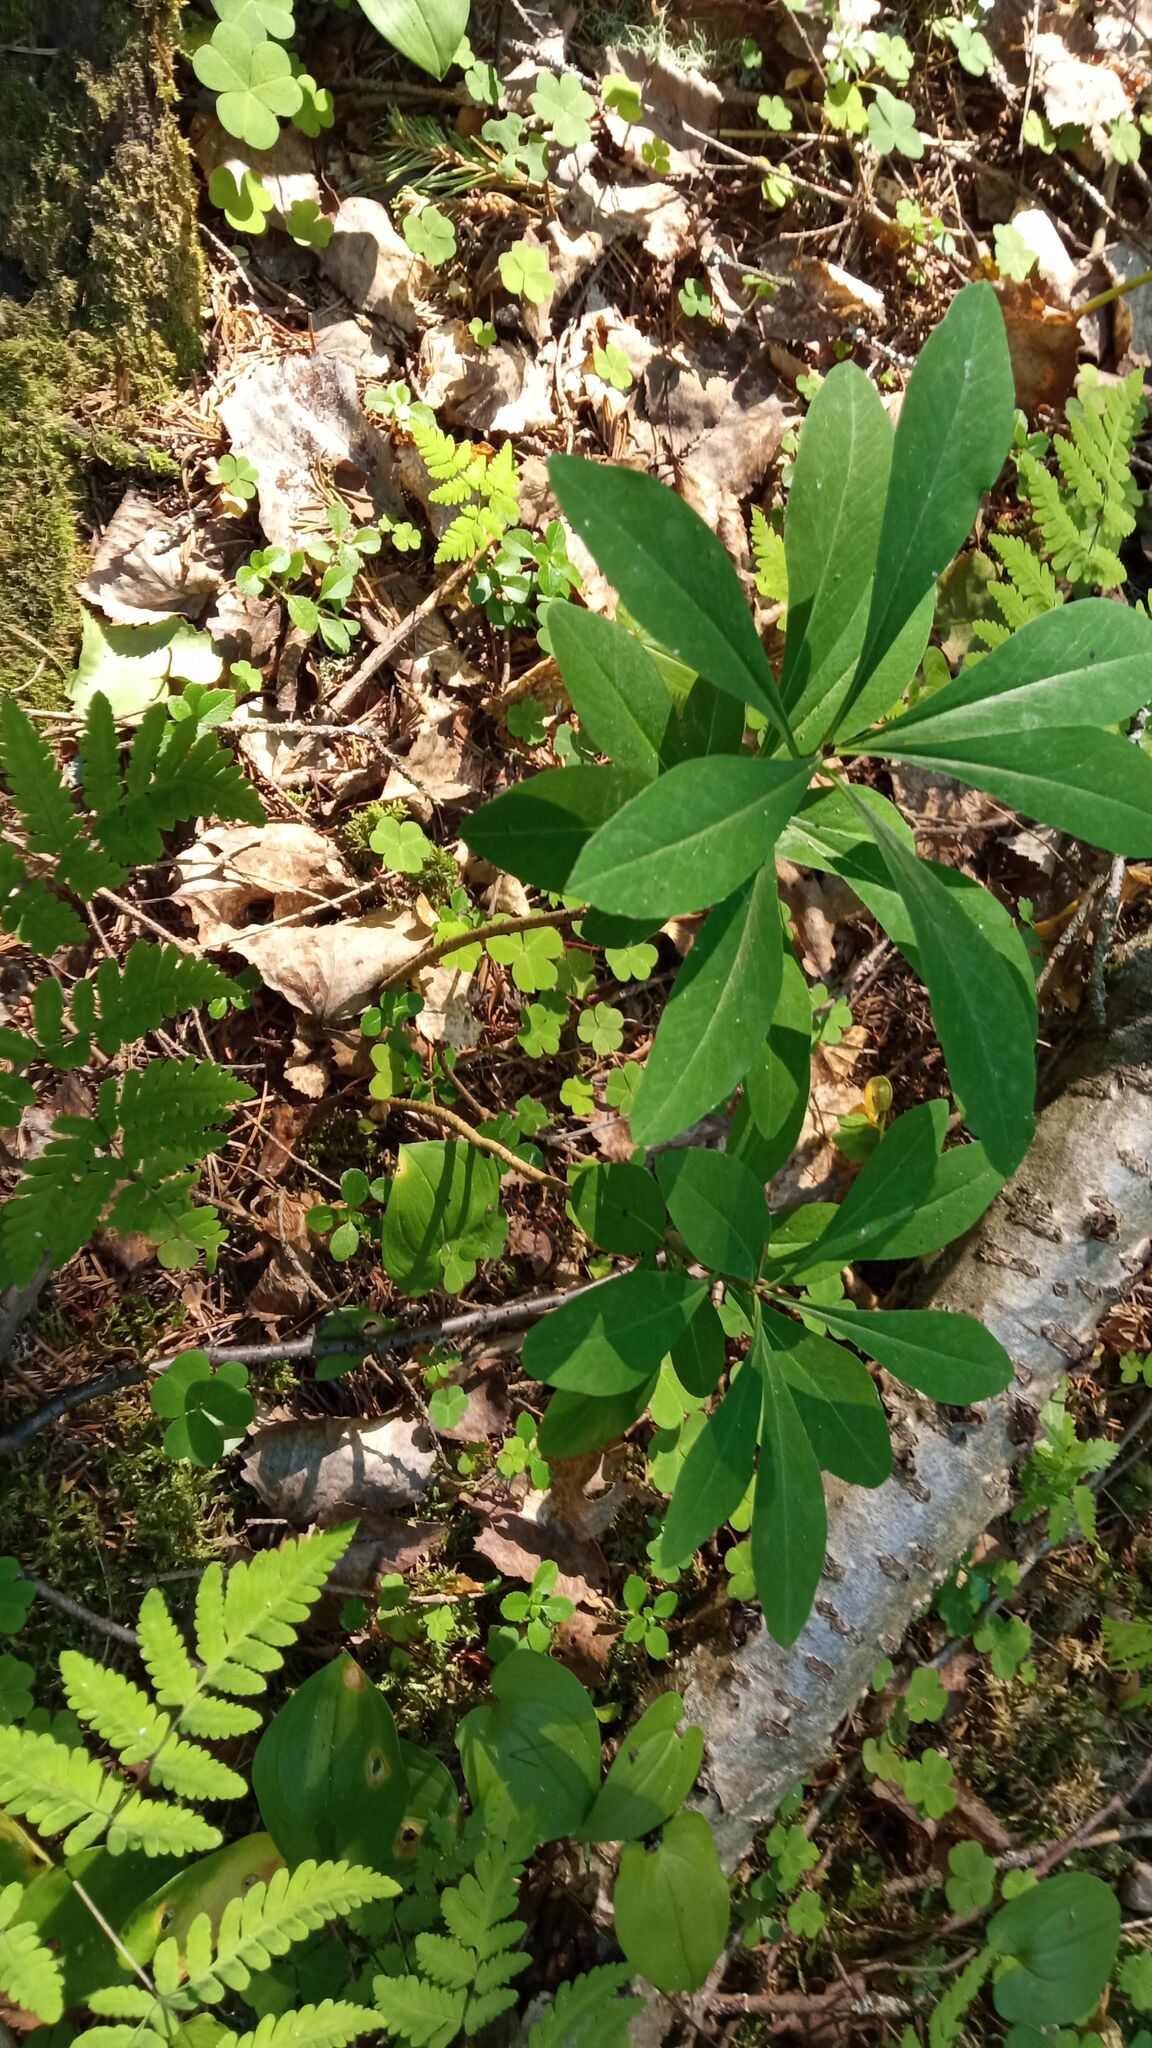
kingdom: Plantae
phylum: Tracheophyta
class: Magnoliopsida
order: Malvales
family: Thymelaeaceae
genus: Daphne
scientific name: Daphne mezereum
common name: Mezereon
